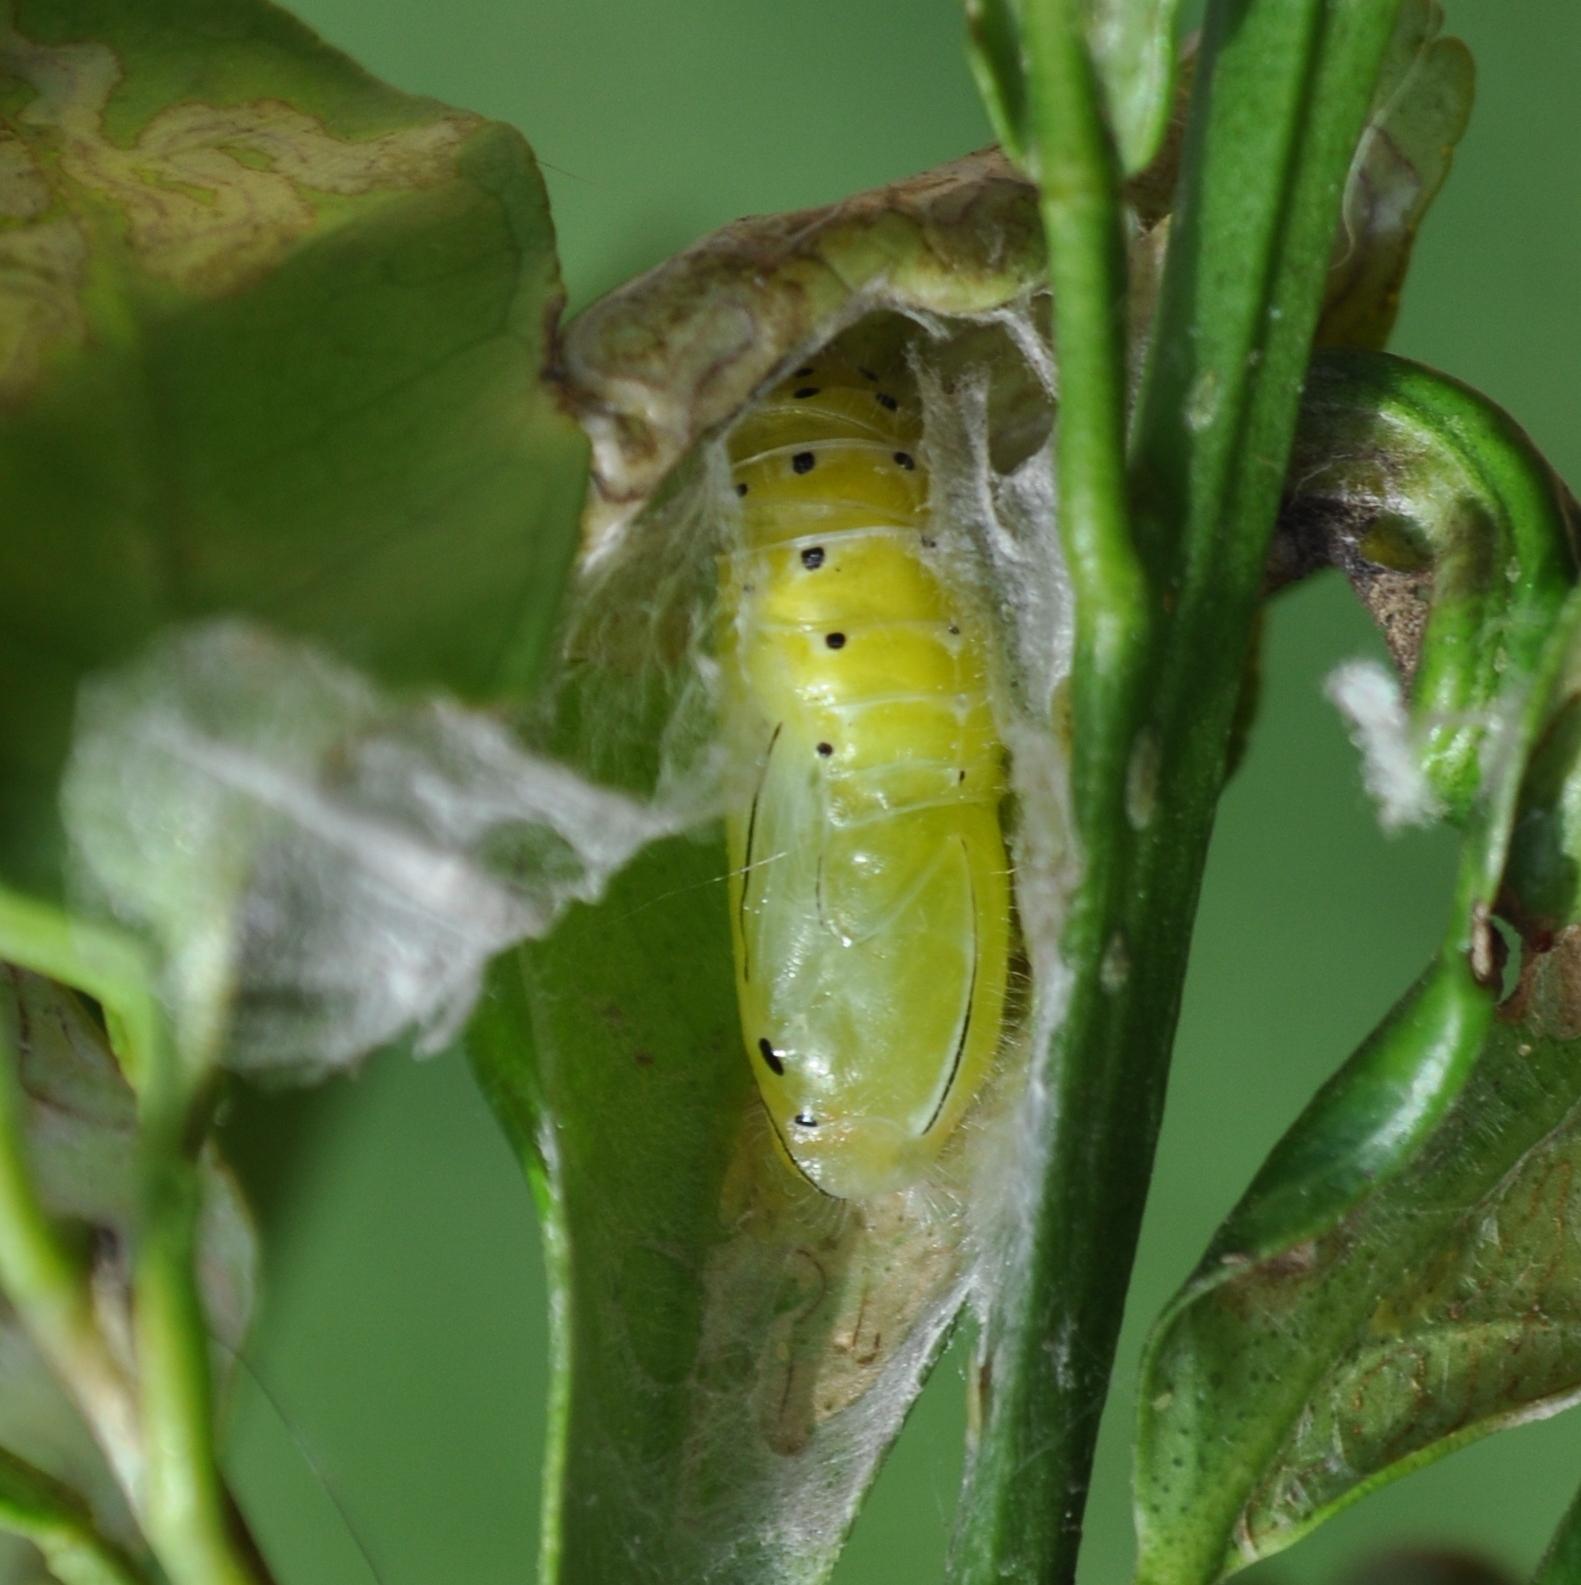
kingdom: Animalia
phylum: Arthropoda
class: Insecta
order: Lepidoptera
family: Lycaenidae
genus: Emesis
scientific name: Emesis russula
